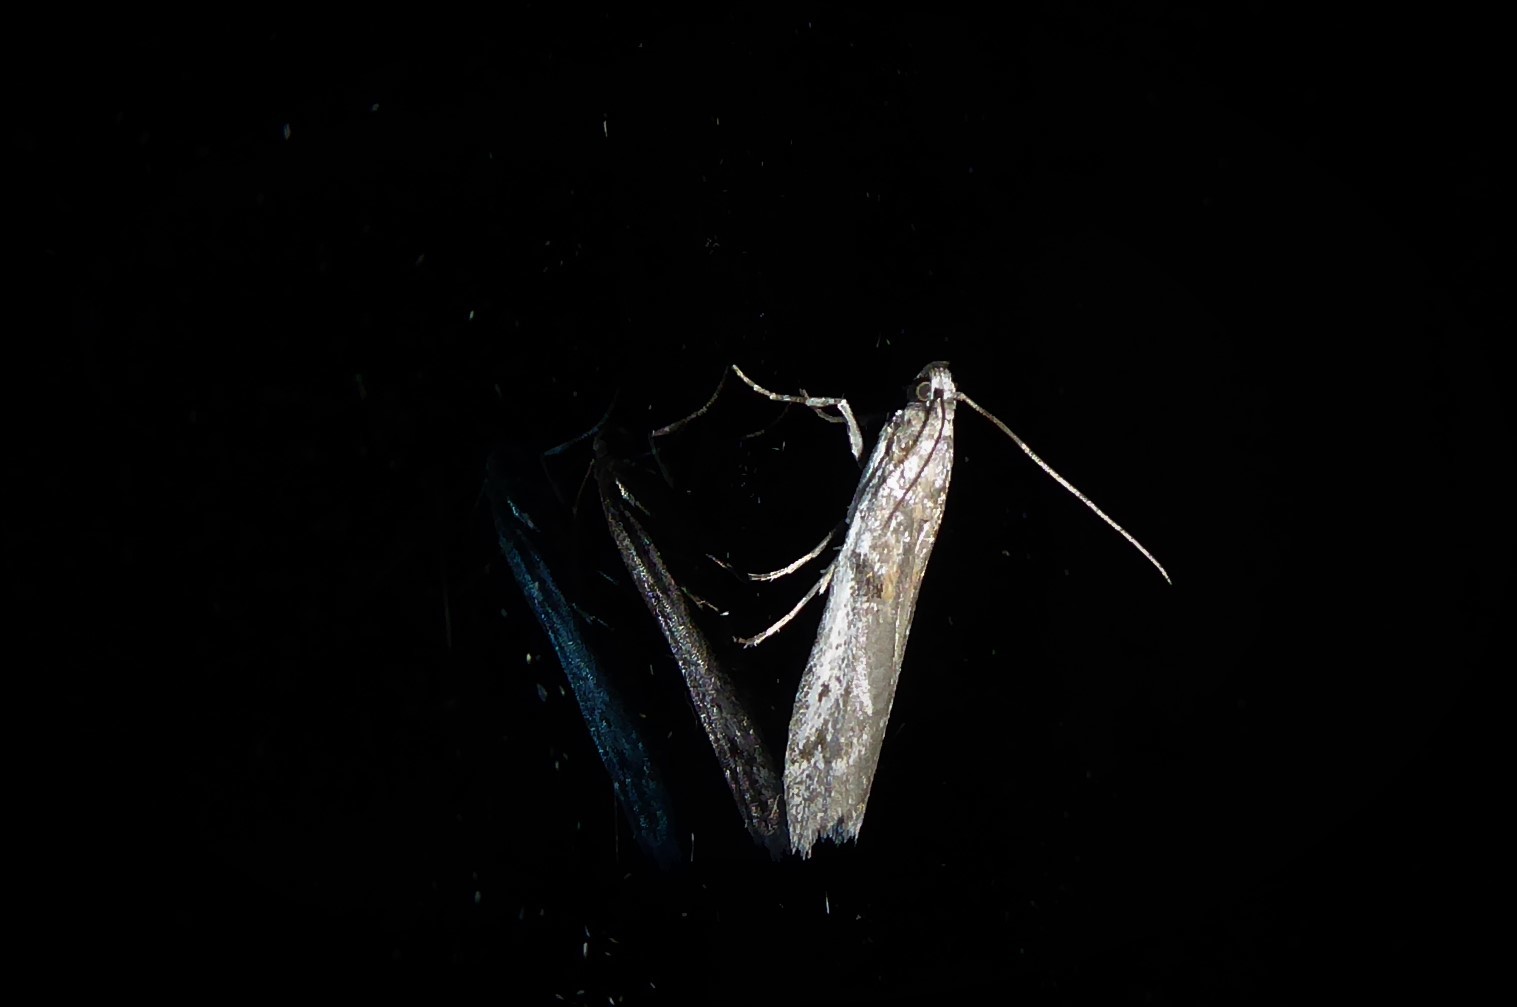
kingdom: Animalia
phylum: Arthropoda
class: Insecta
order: Lepidoptera
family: Pyralidae
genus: Patagoniodes
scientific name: Patagoniodes farinaria
